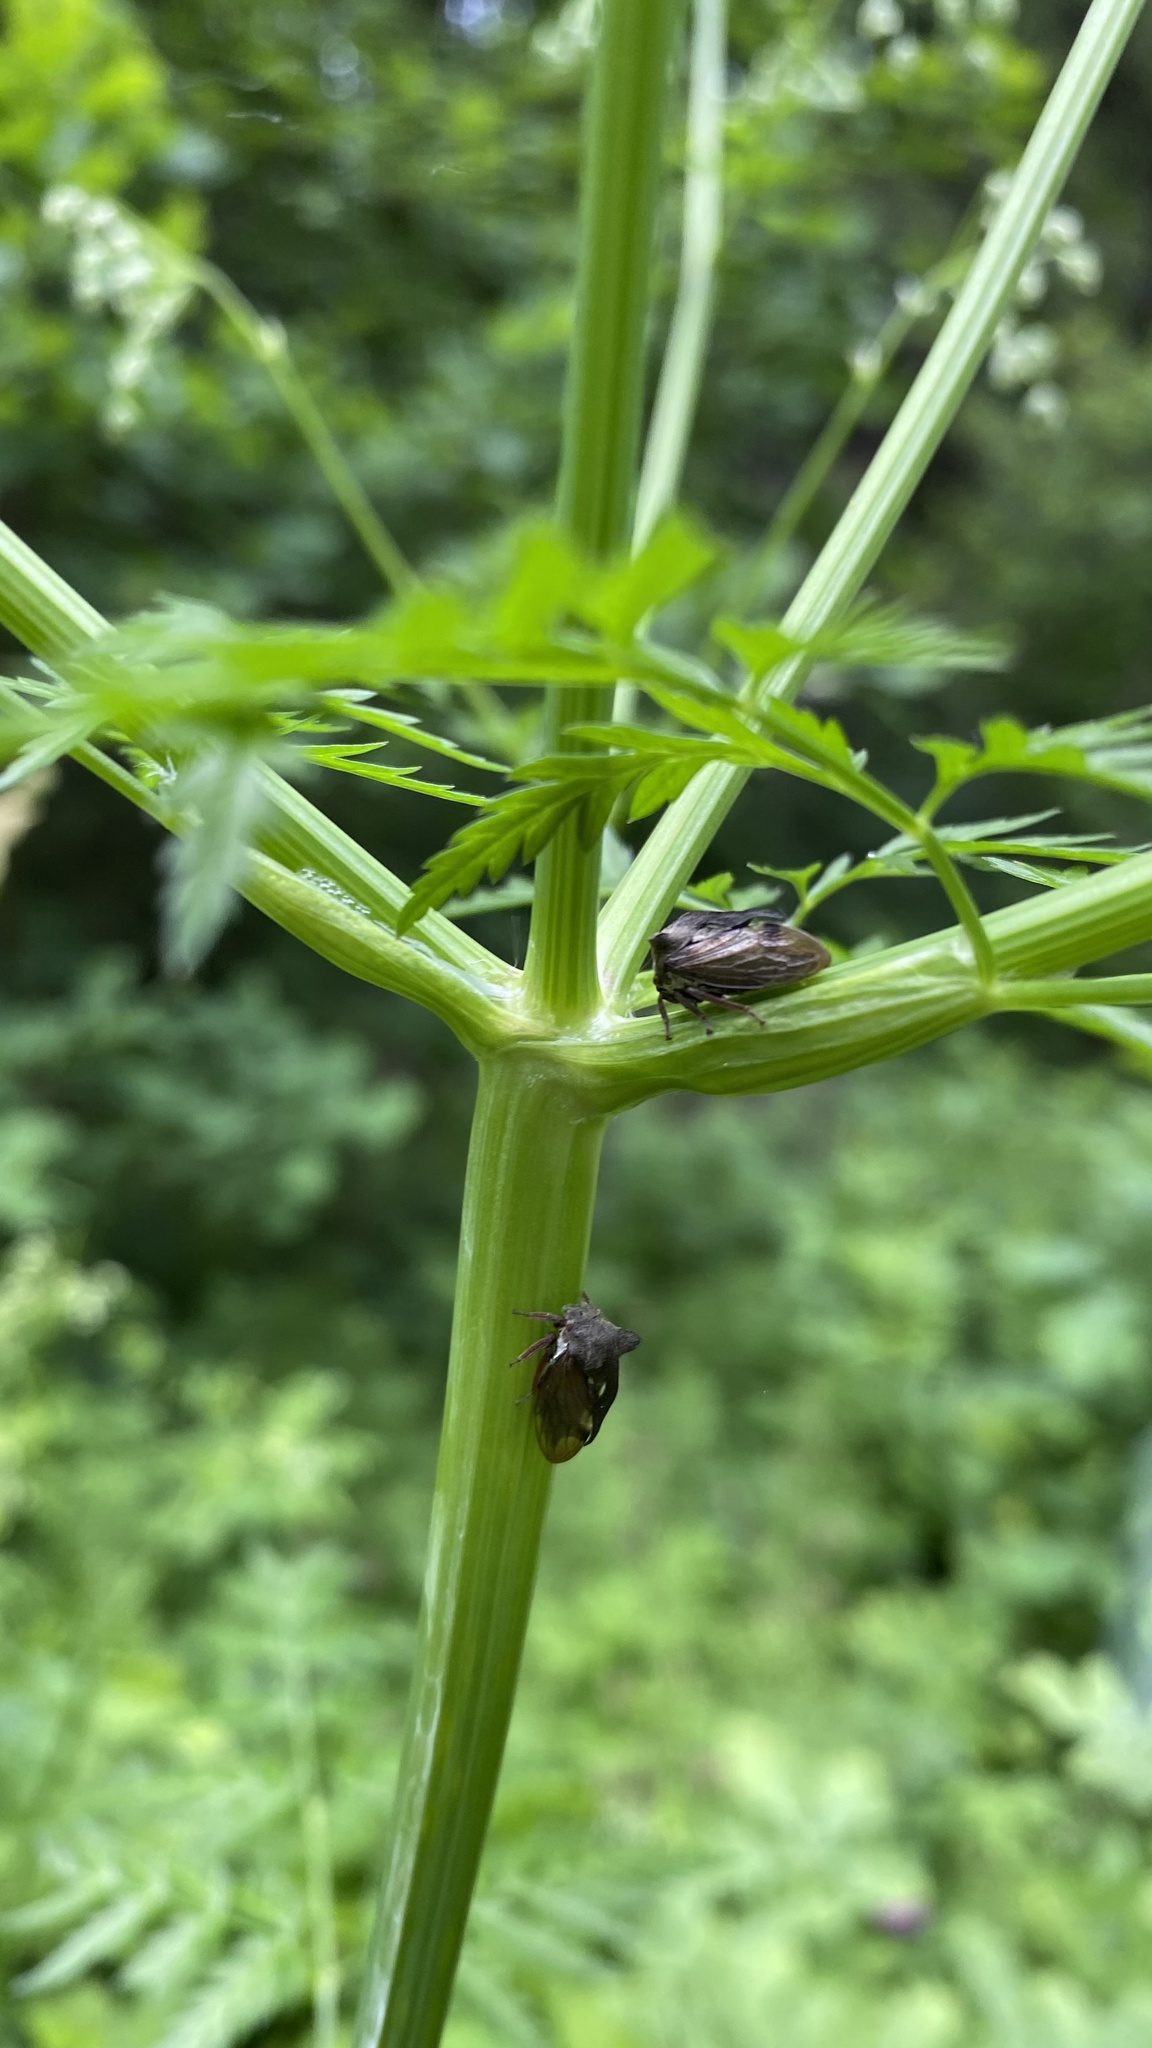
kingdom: Animalia
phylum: Arthropoda
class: Insecta
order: Hemiptera
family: Membracidae
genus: Centrotus
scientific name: Centrotus cornuta
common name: Treehopper
